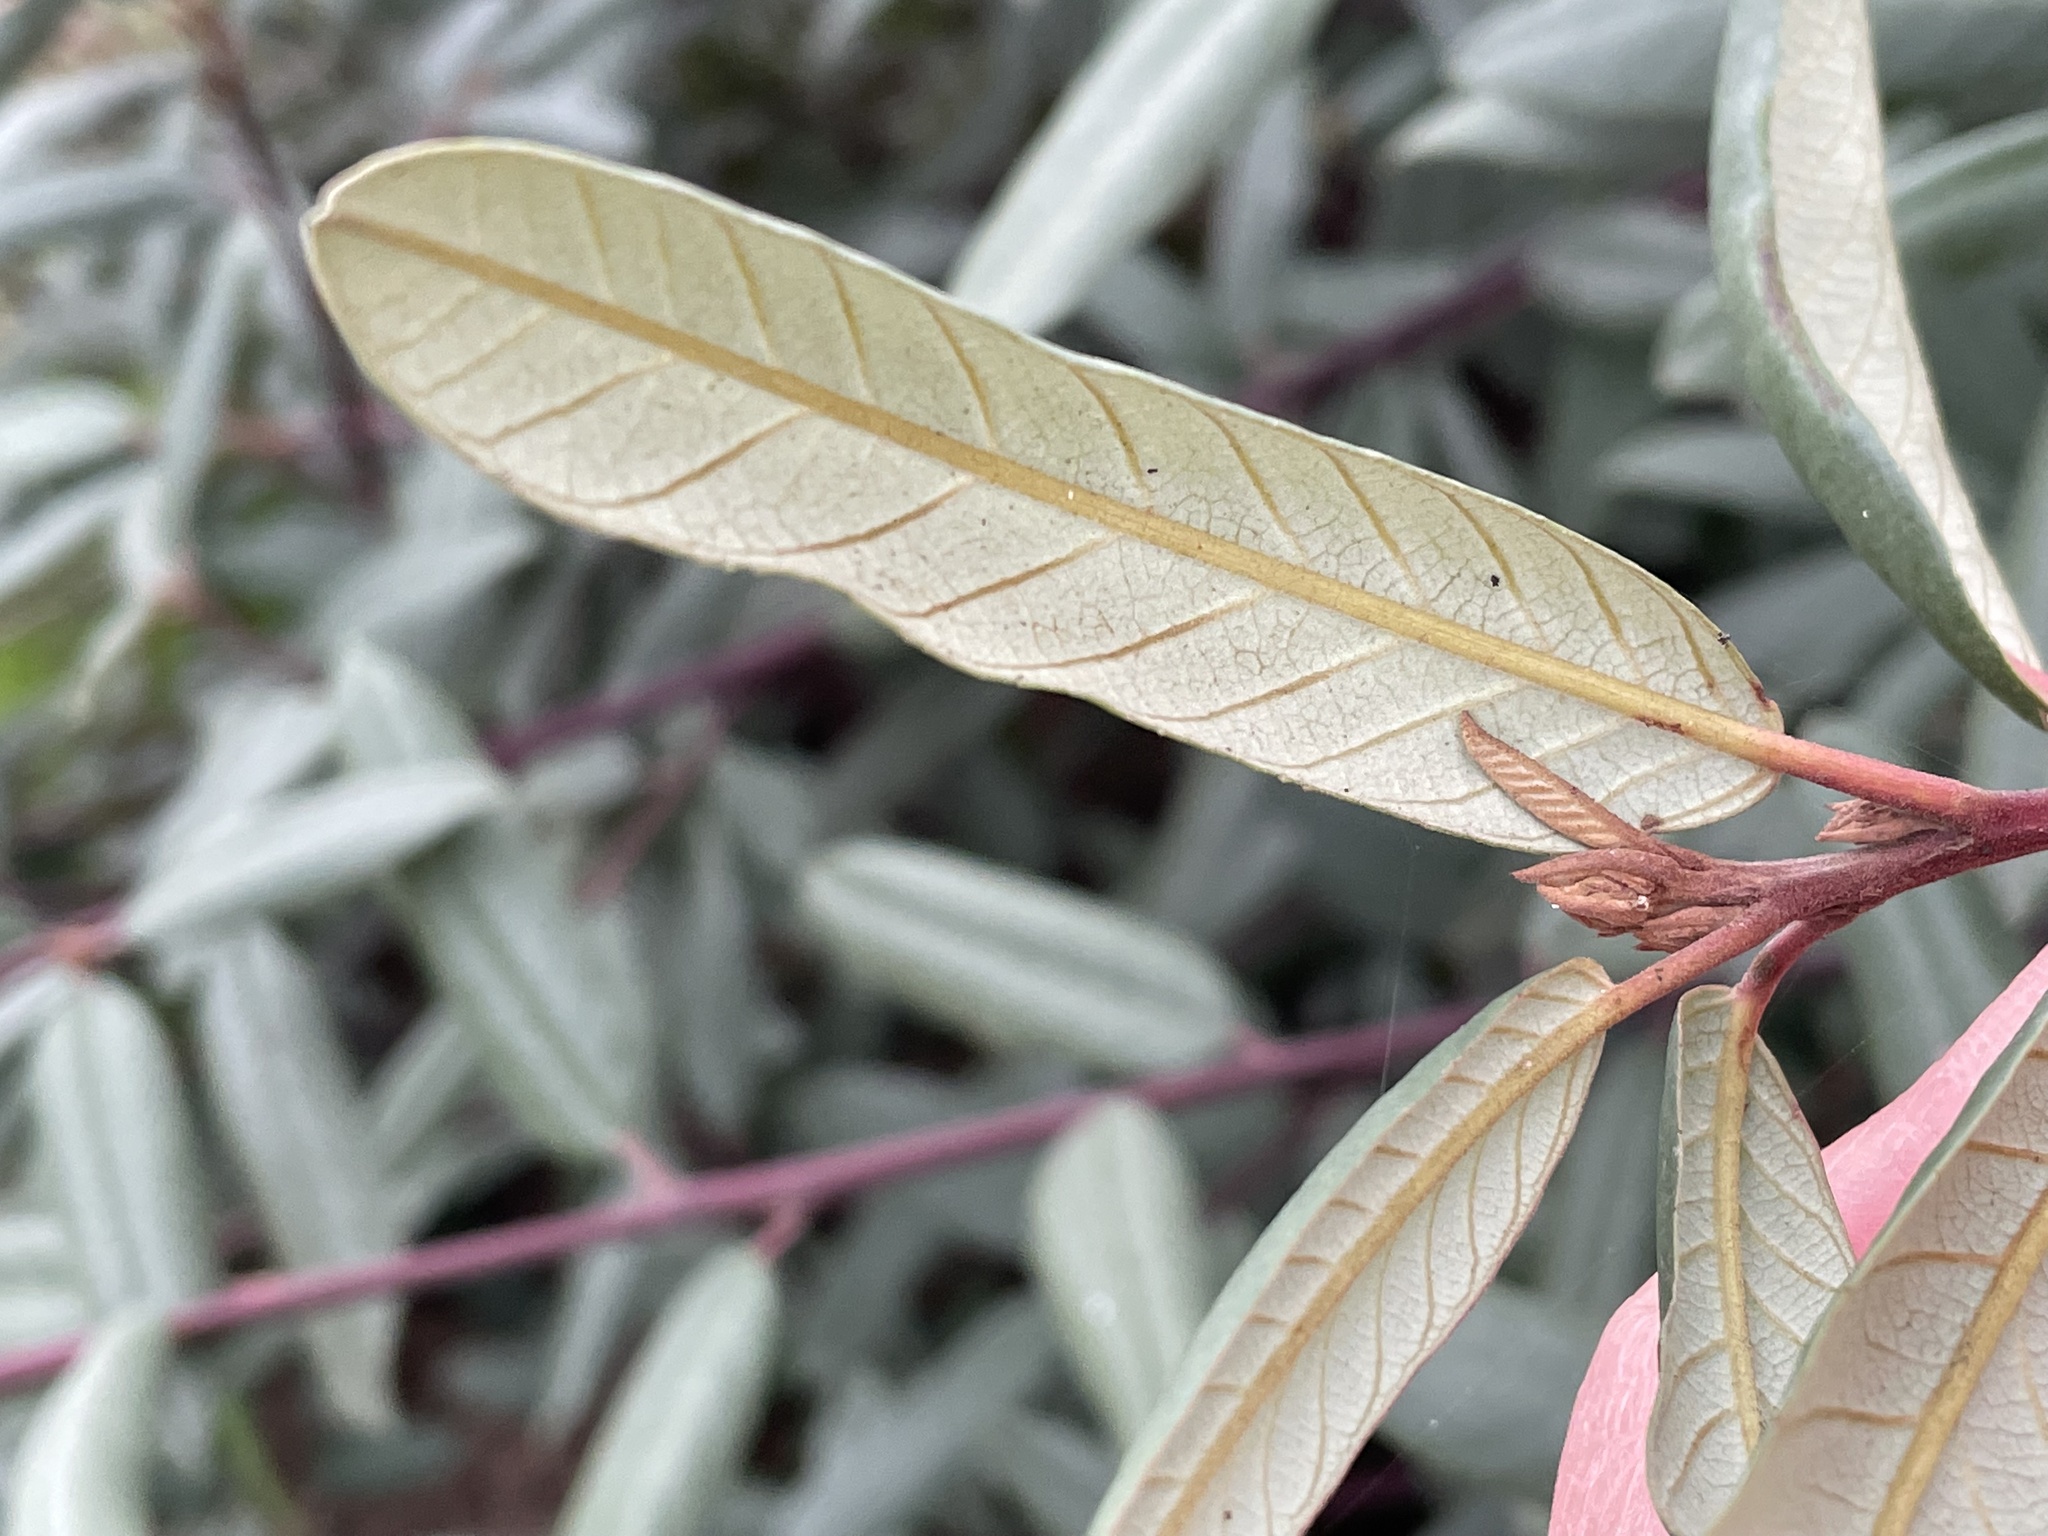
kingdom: Plantae
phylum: Tracheophyta
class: Magnoliopsida
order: Rosales
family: Rhamnaceae
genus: Frangula
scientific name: Frangula californica
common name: California buckthorn
